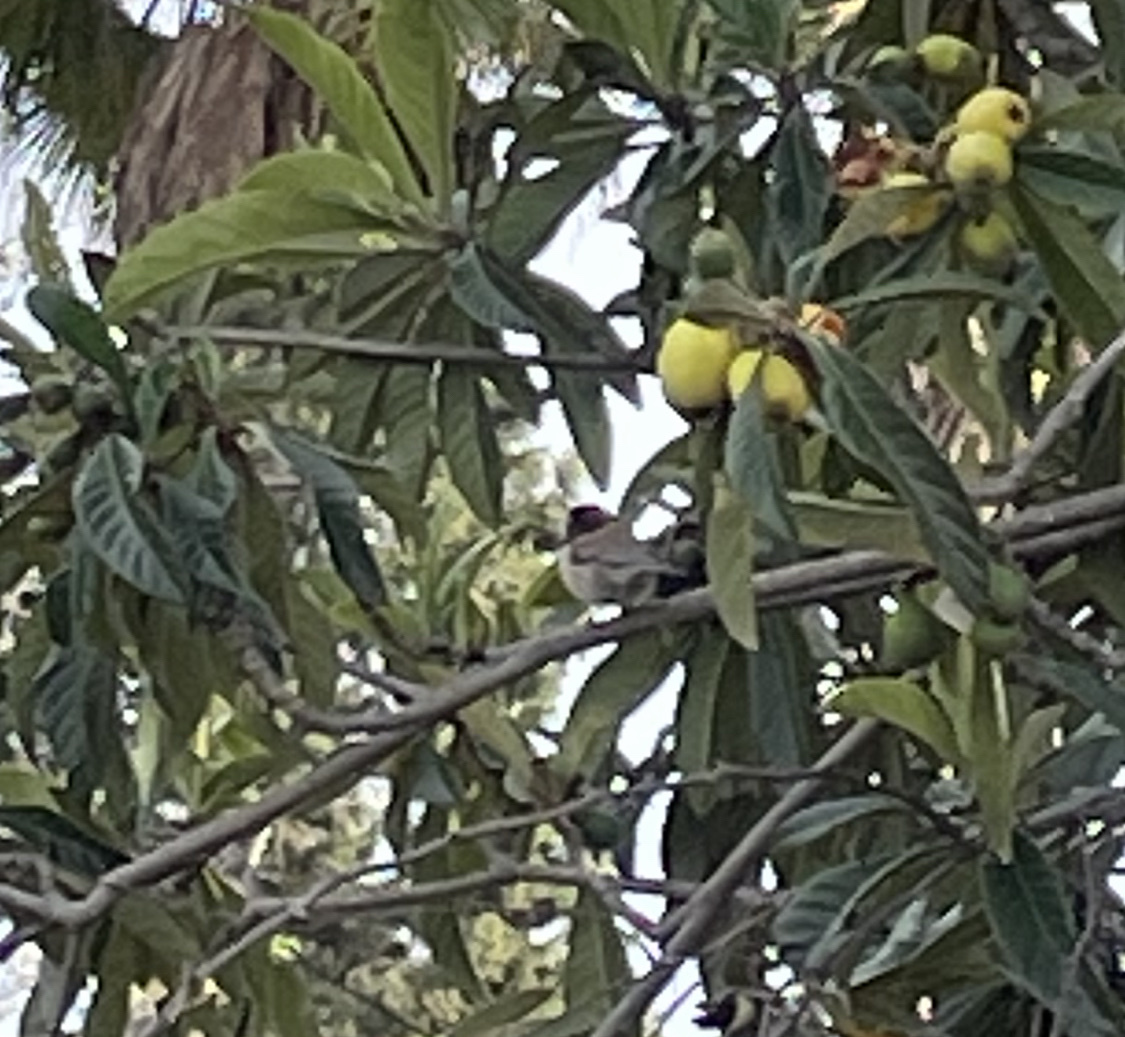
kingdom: Animalia
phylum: Chordata
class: Aves
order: Passeriformes
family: Passerellidae
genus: Junco
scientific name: Junco hyemalis
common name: Dark-eyed junco
